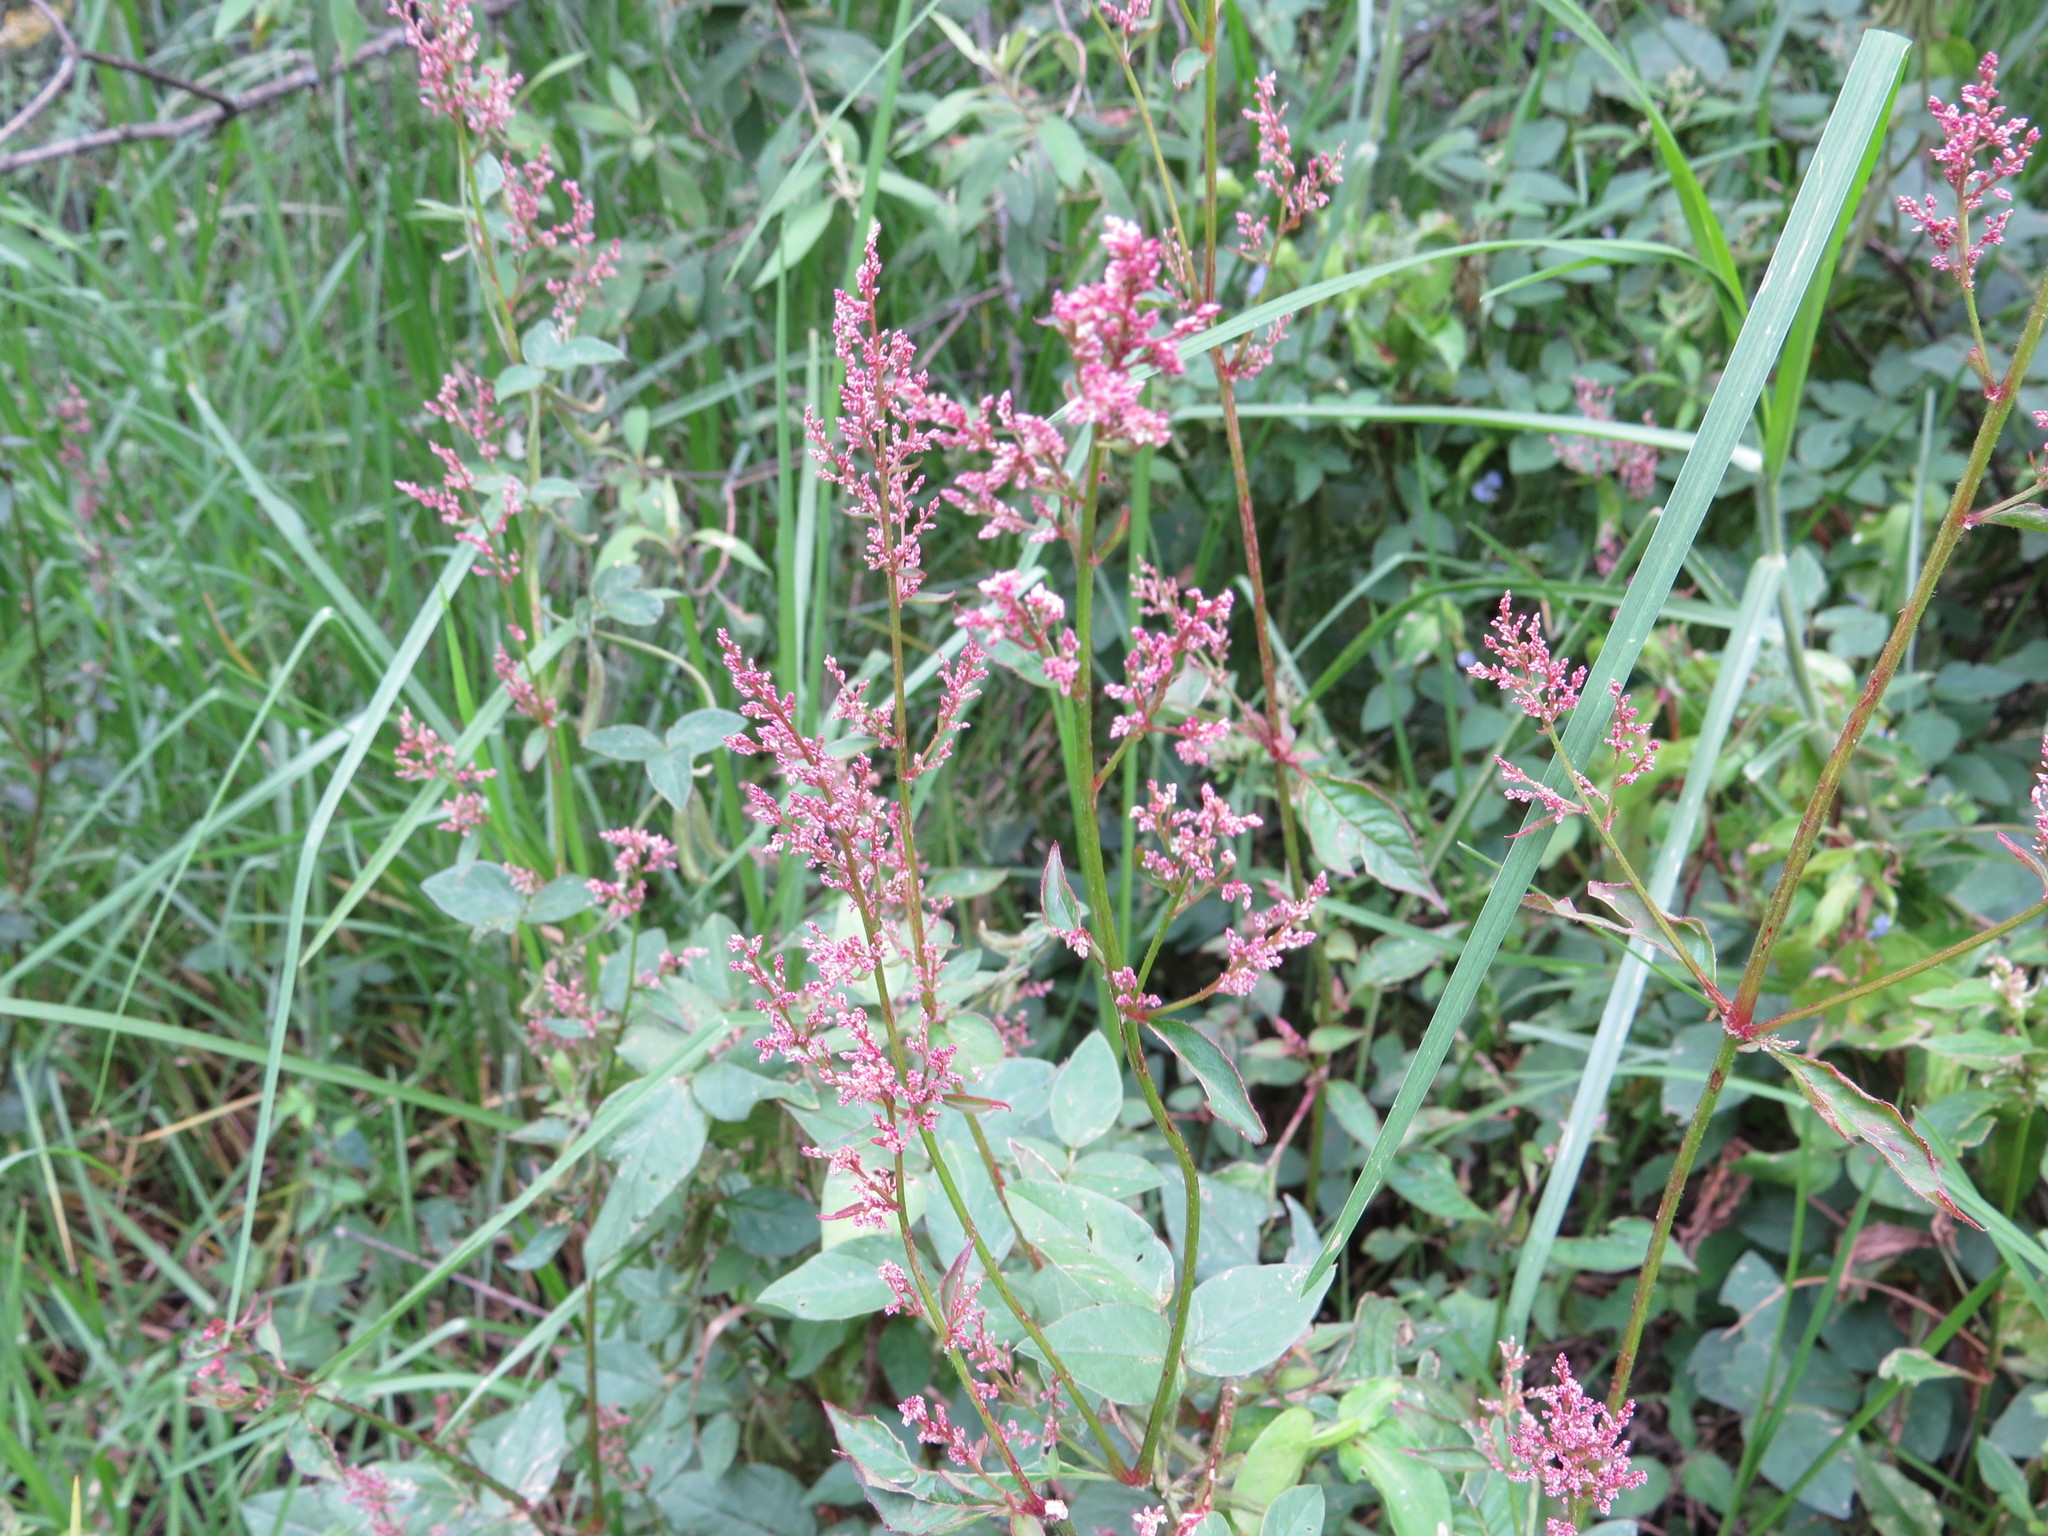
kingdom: Plantae
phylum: Tracheophyta
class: Magnoliopsida
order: Caryophyllales
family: Amaranthaceae
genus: Iresine
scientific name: Iresine diffusa
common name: Juba's-bush
